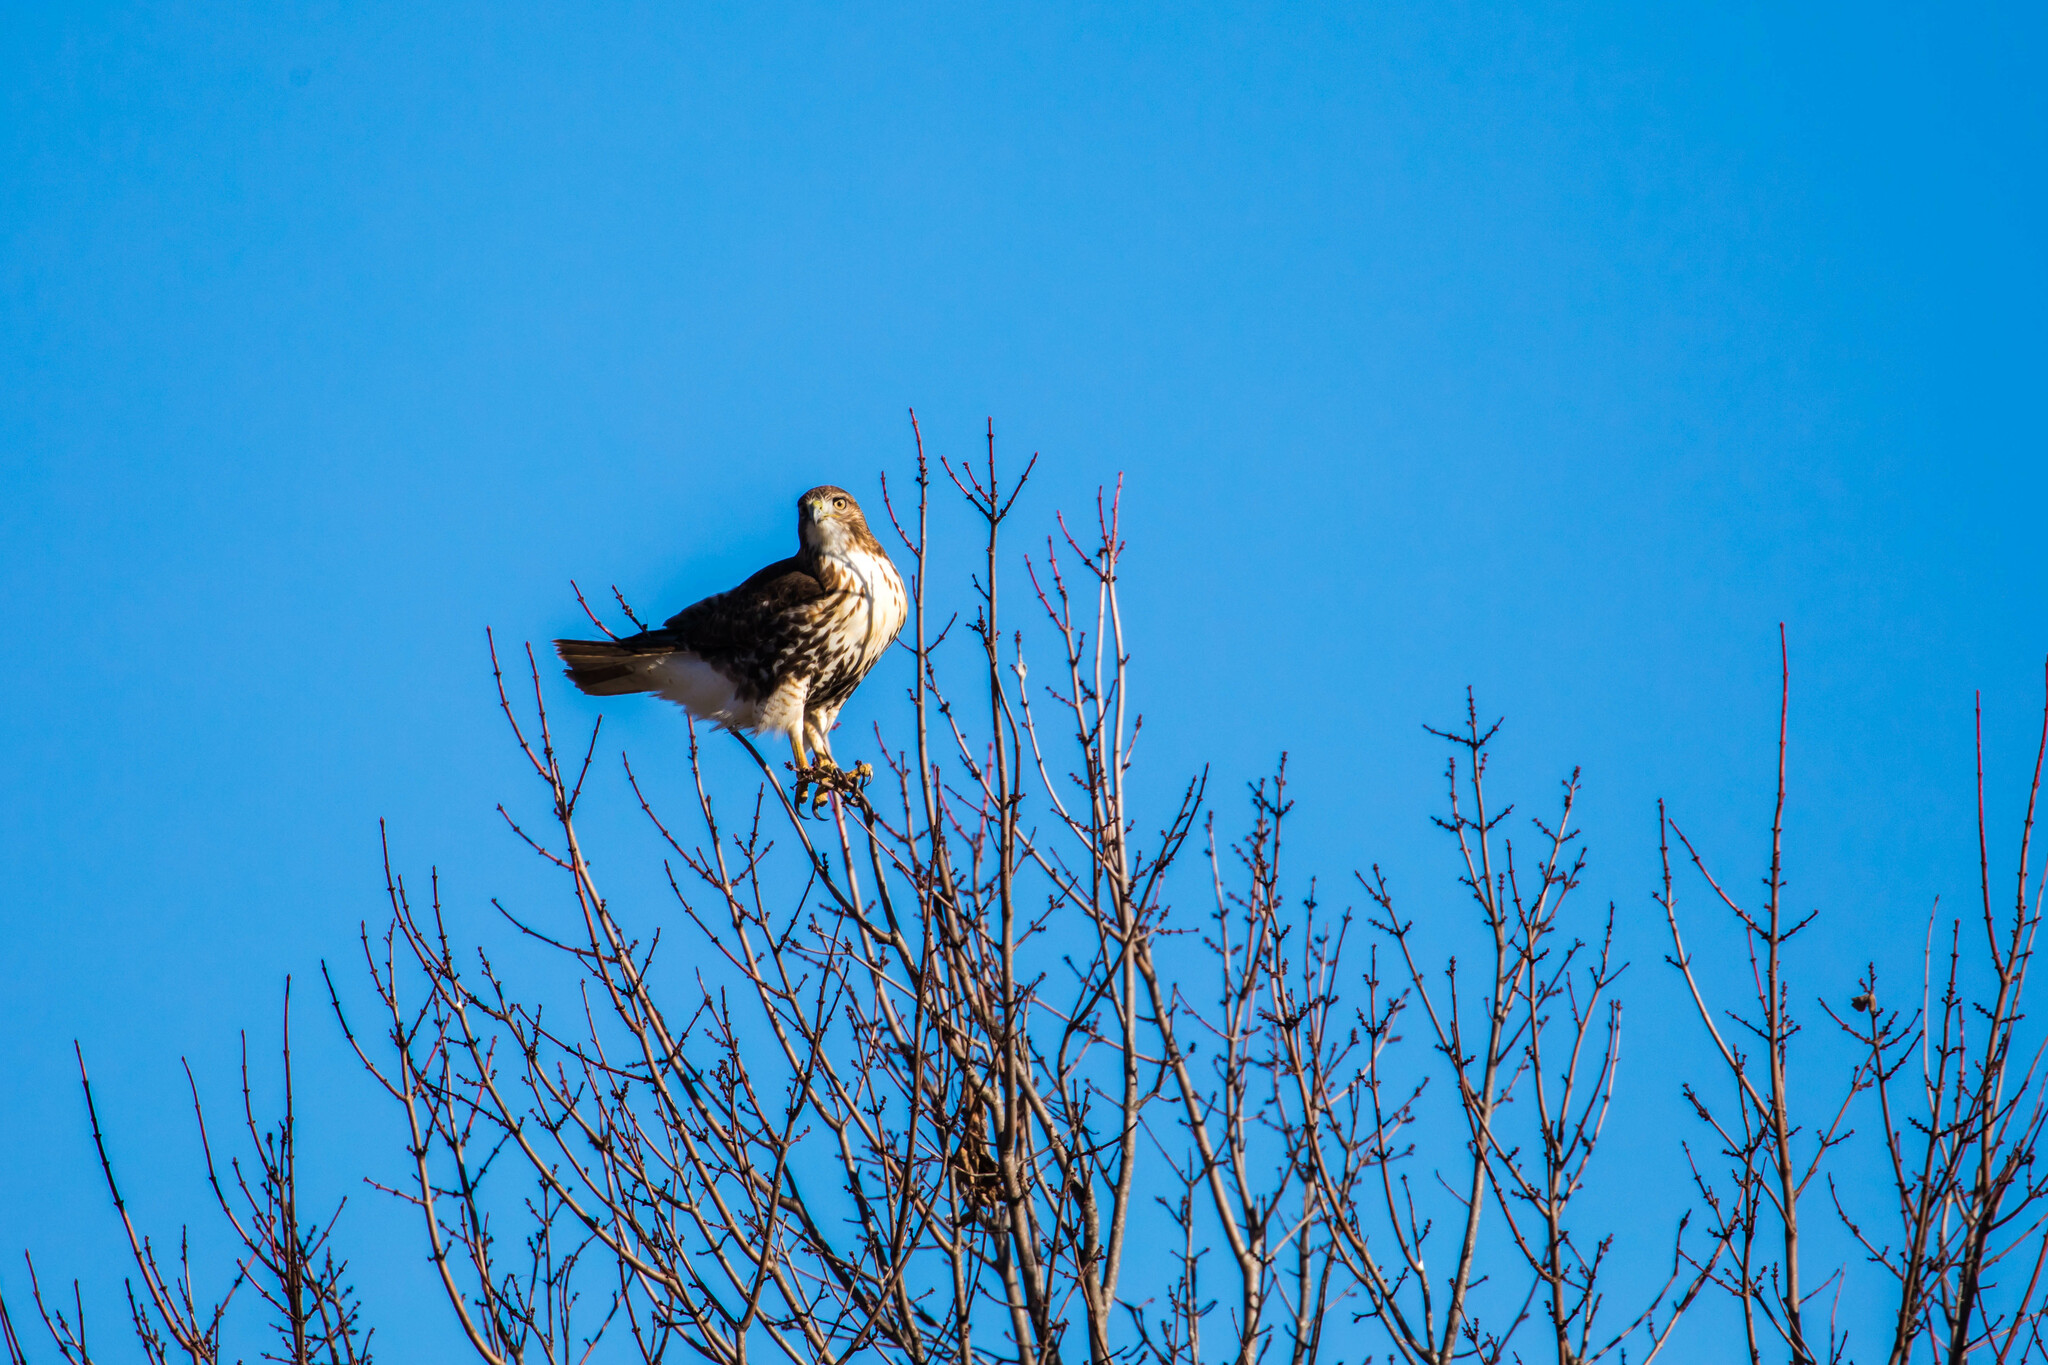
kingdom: Animalia
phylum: Chordata
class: Aves
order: Accipitriformes
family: Accipitridae
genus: Buteo
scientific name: Buteo jamaicensis
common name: Red-tailed hawk
